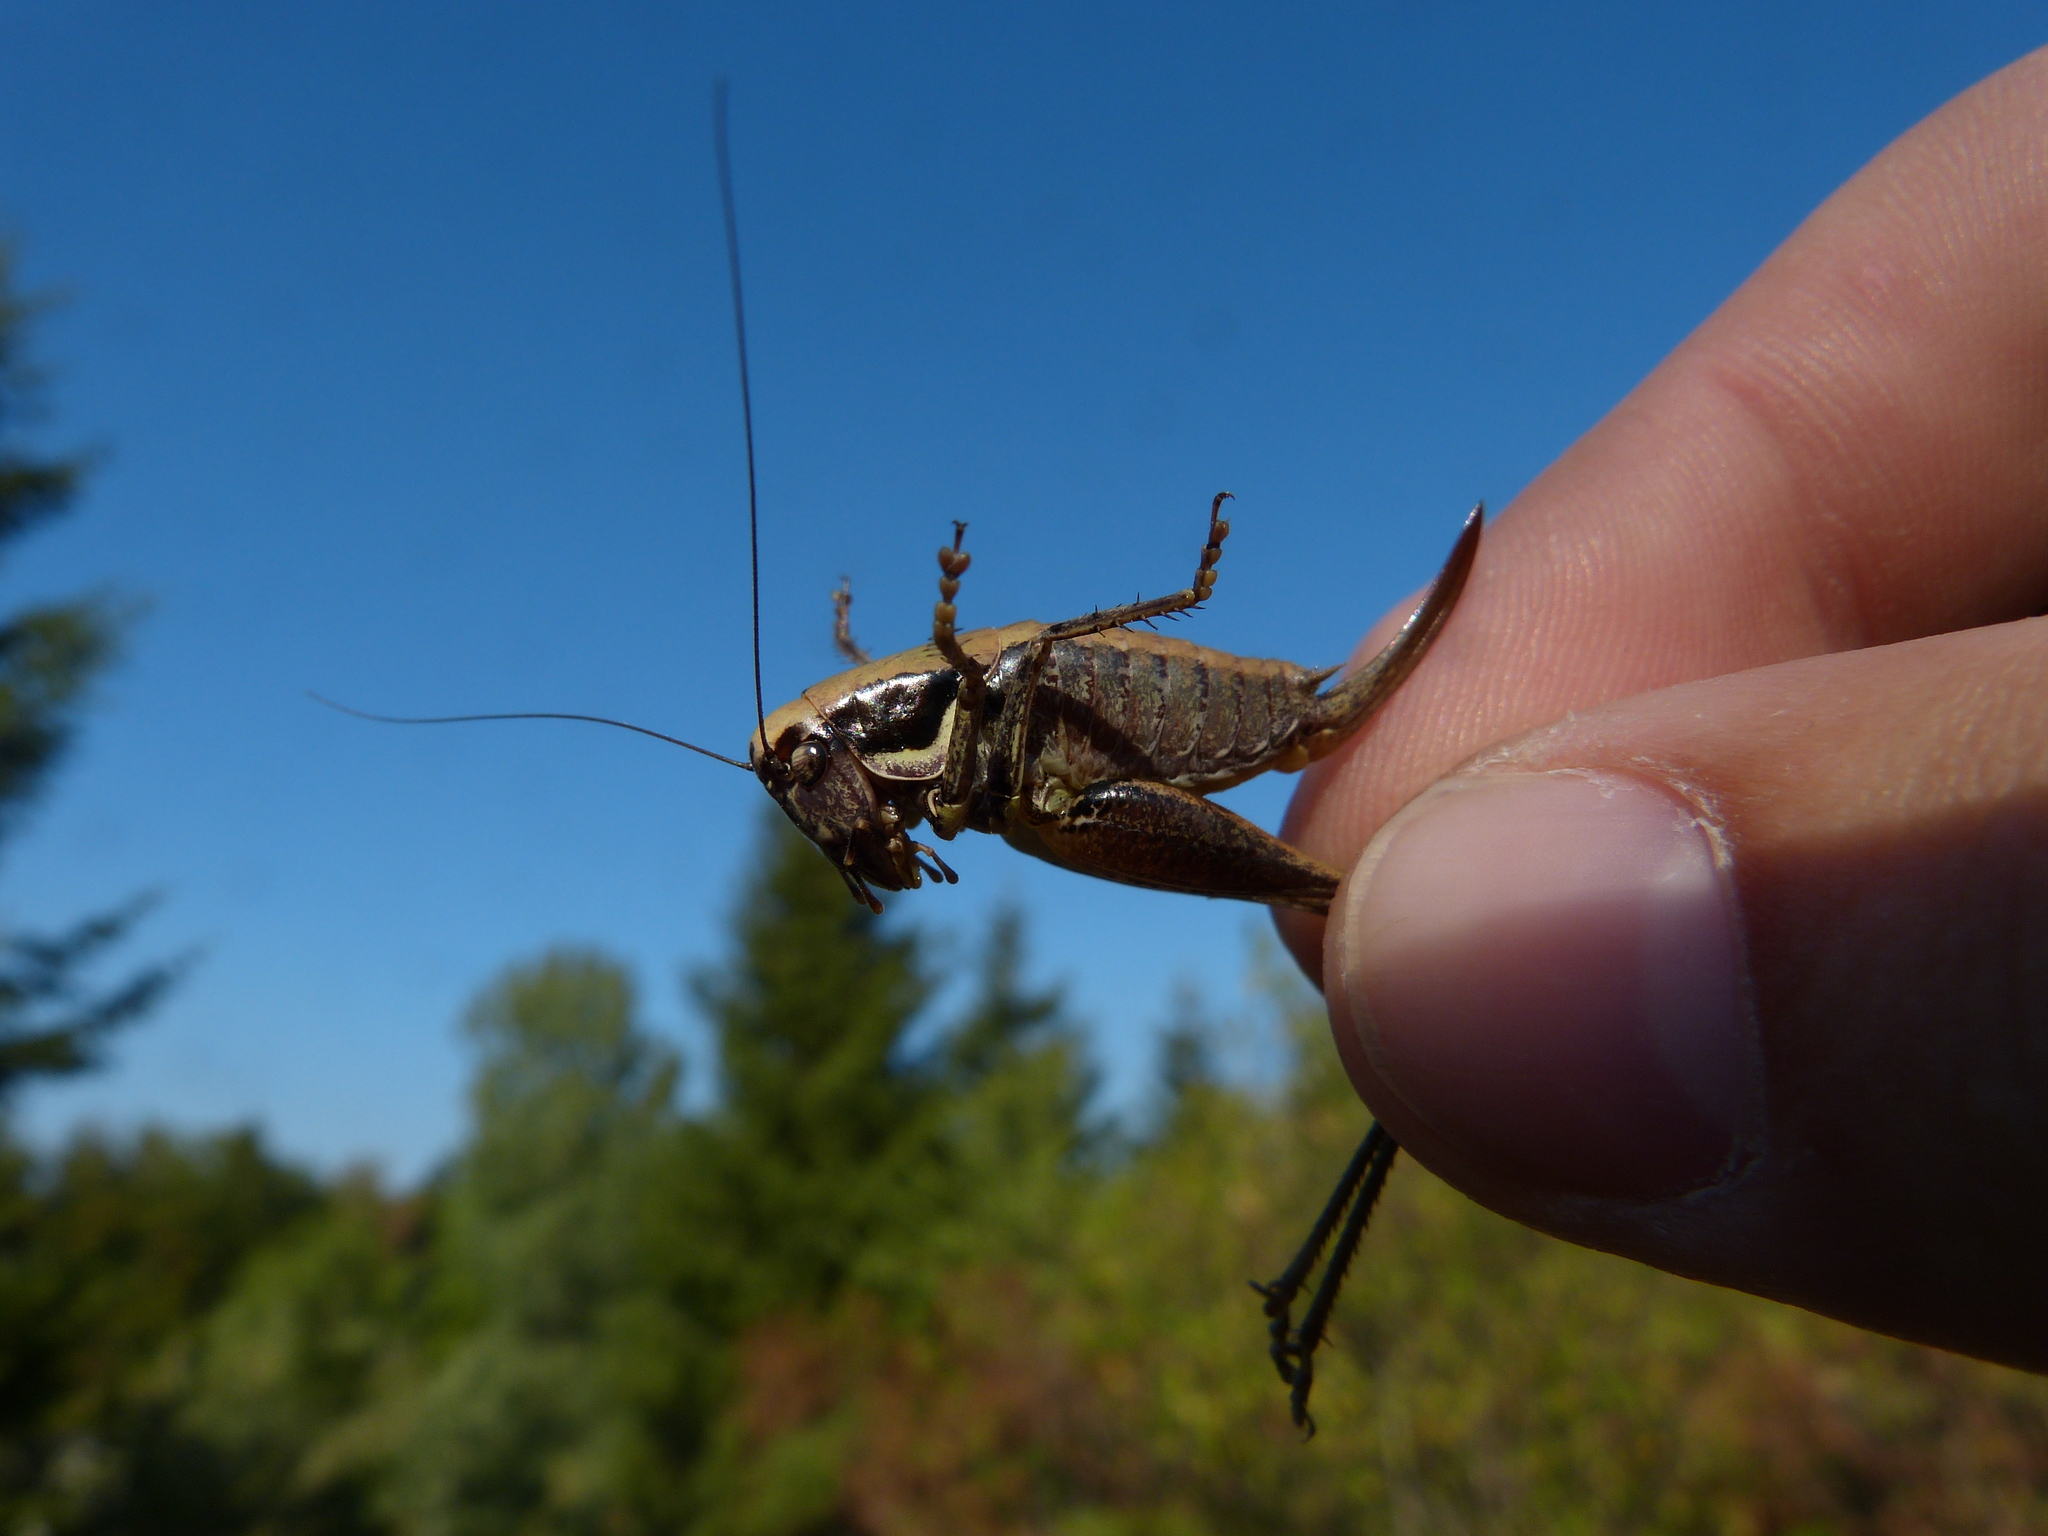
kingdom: Animalia
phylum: Arthropoda
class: Insecta
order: Orthoptera
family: Tettigoniidae
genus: Pholidoptera
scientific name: Pholidoptera fallax
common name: Fischer's bush-cricket
